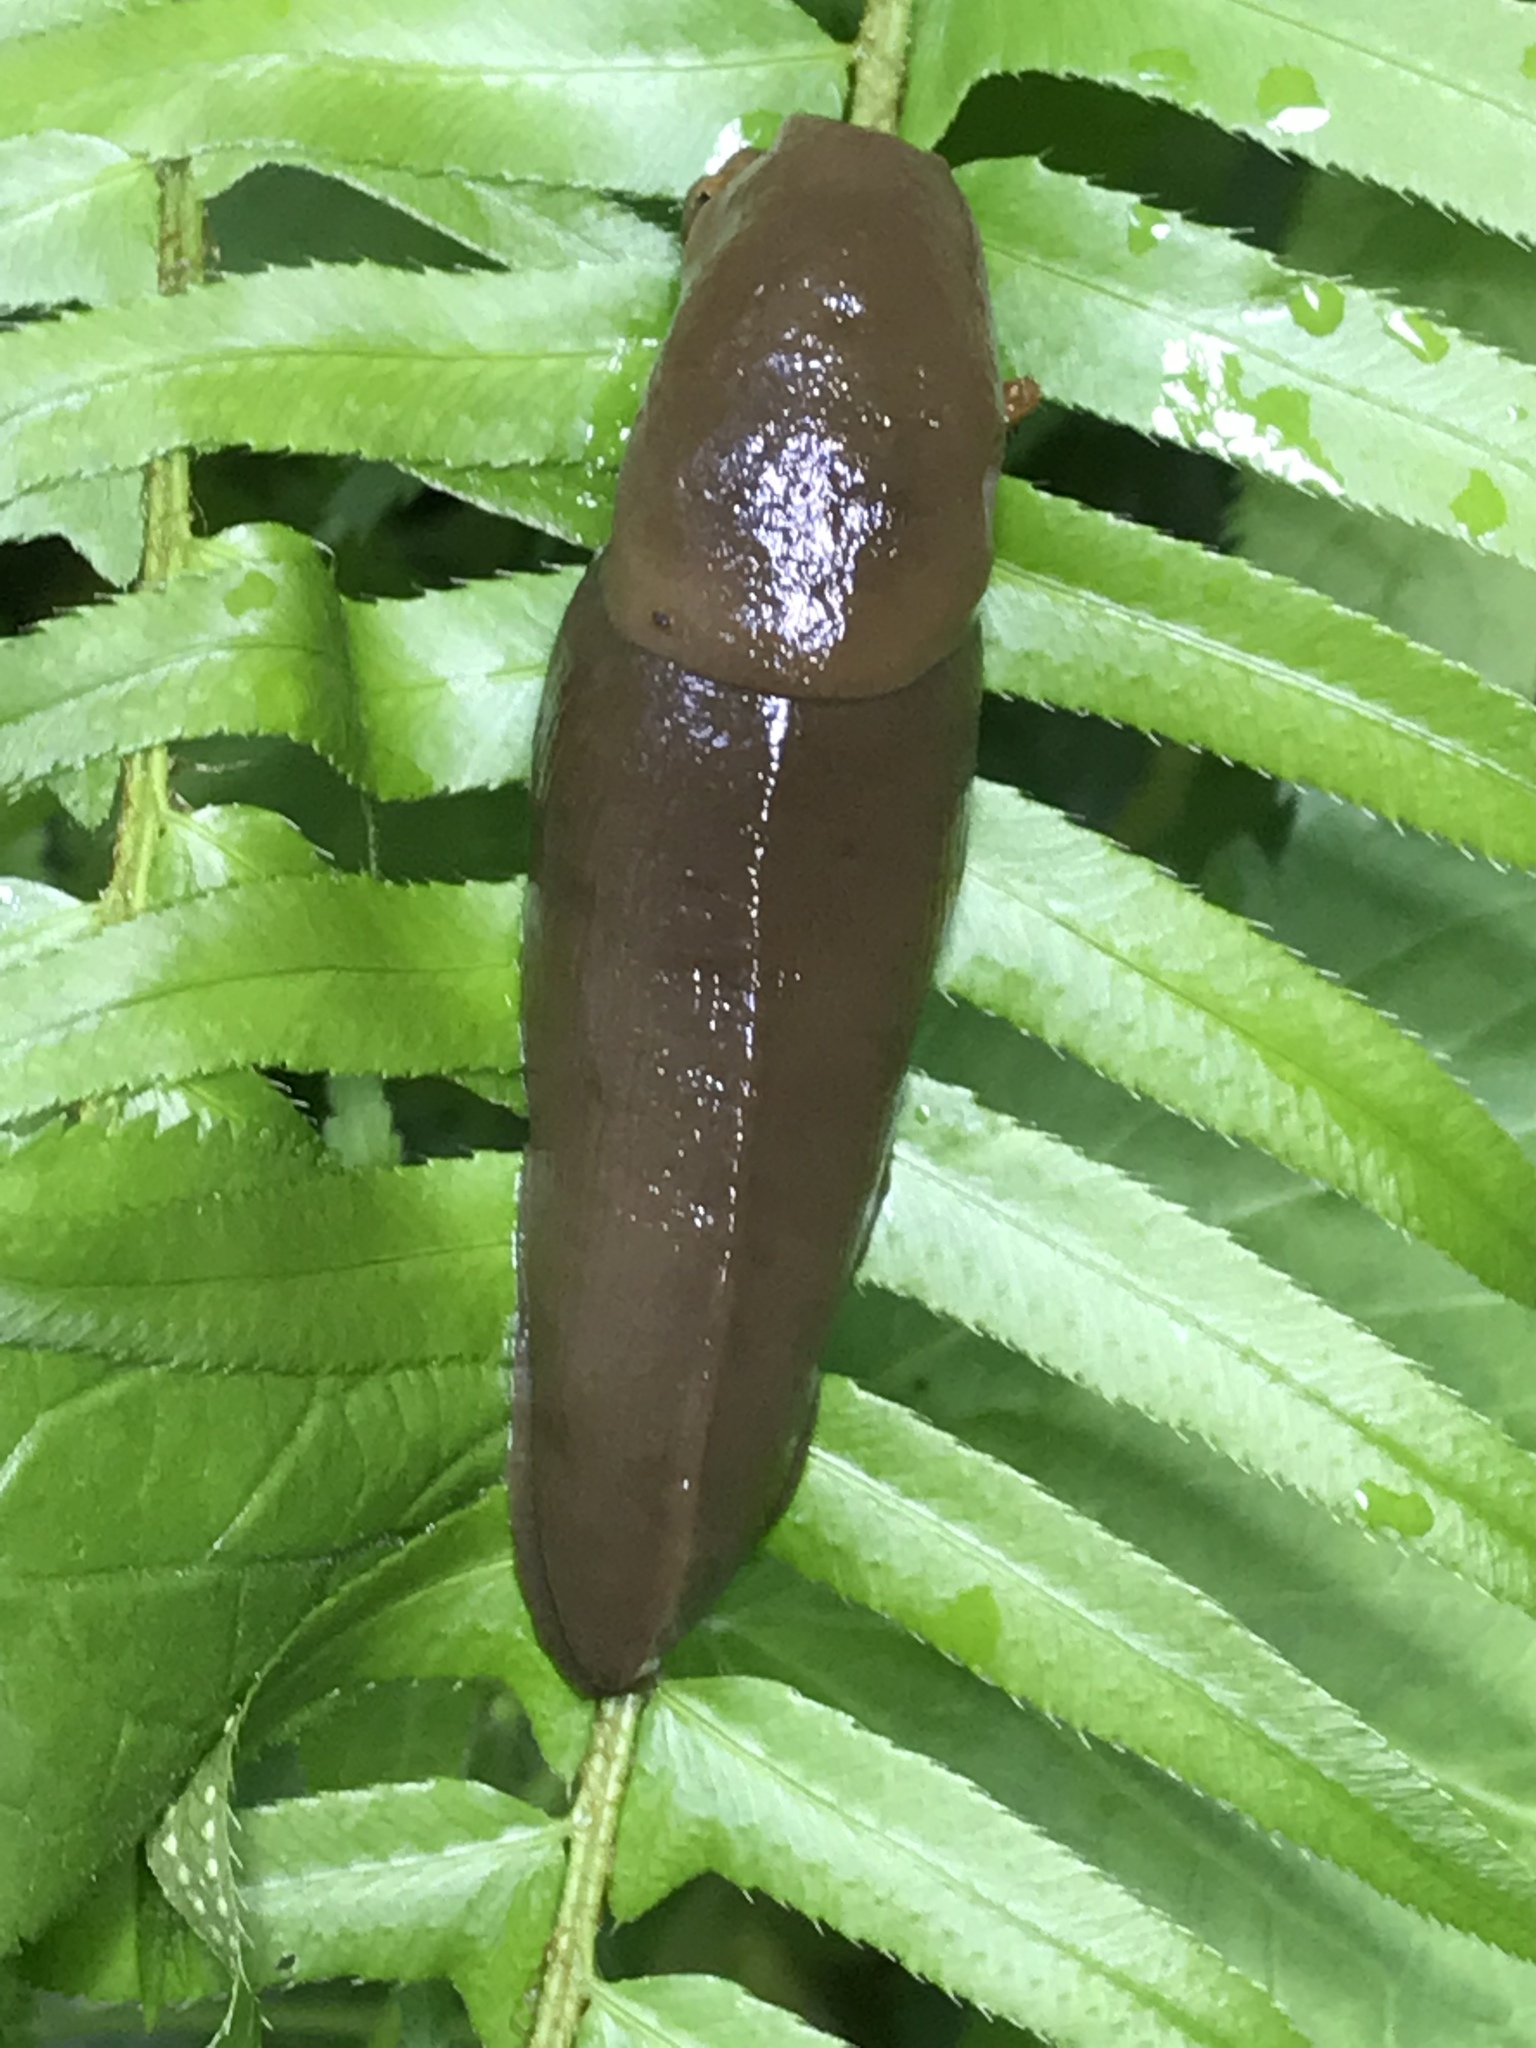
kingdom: Animalia
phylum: Mollusca
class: Gastropoda
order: Stylommatophora
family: Ariolimacidae
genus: Ariolimax
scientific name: Ariolimax columbianus
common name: Pacific banana slug
